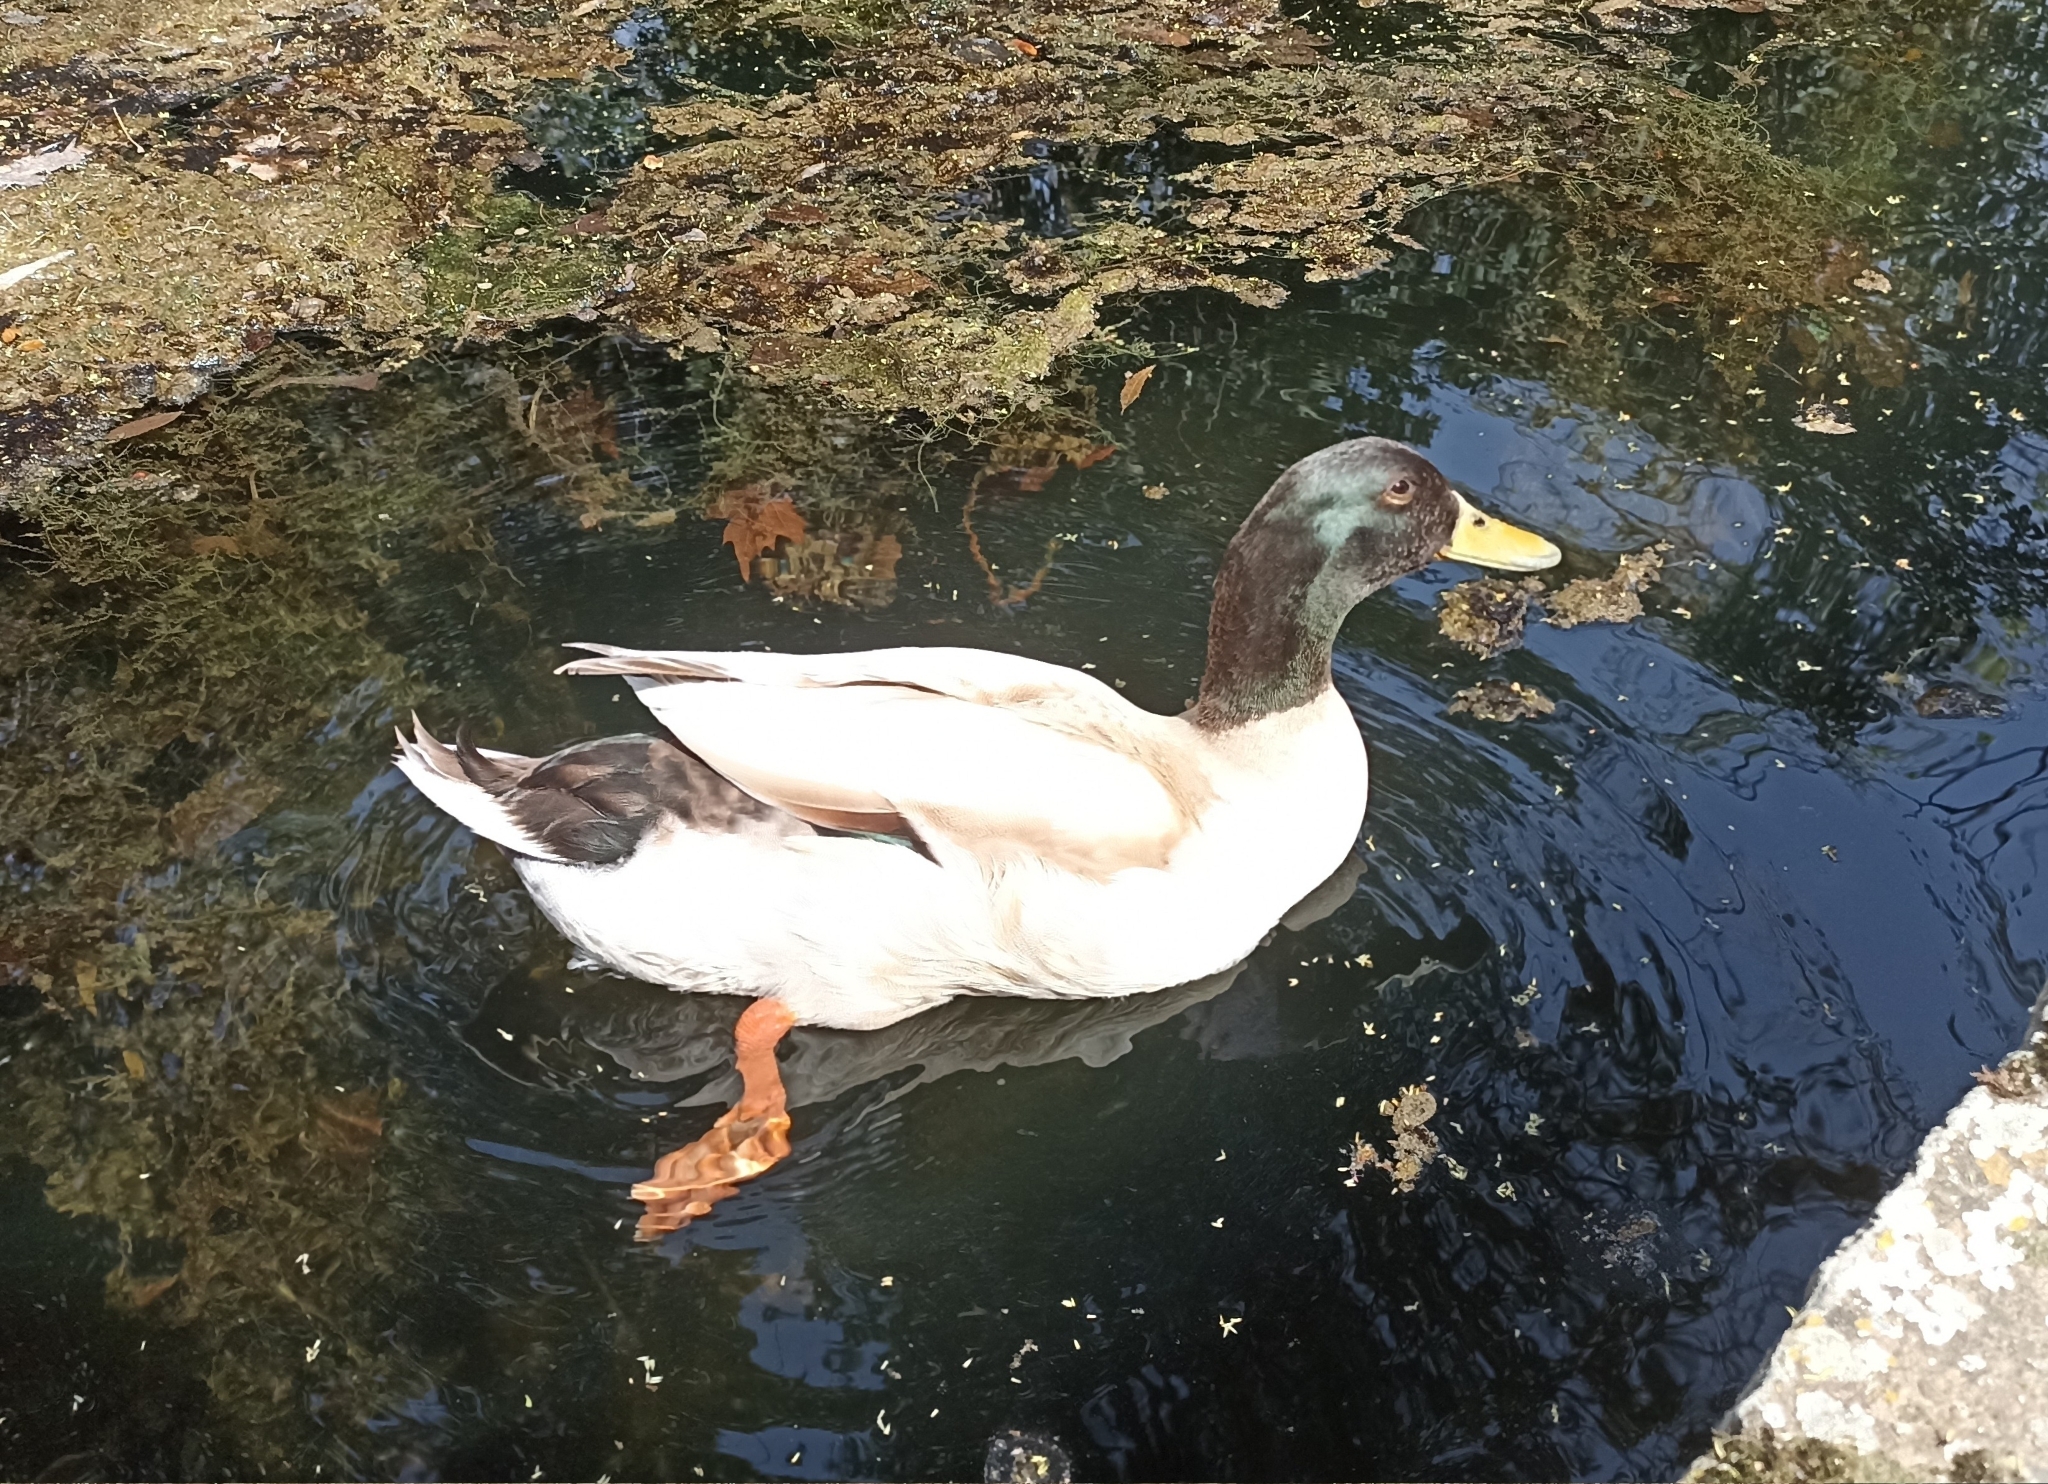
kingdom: Animalia
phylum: Chordata
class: Aves
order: Anseriformes
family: Anatidae
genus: Anas
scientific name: Anas platyrhynchos
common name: Mallard
